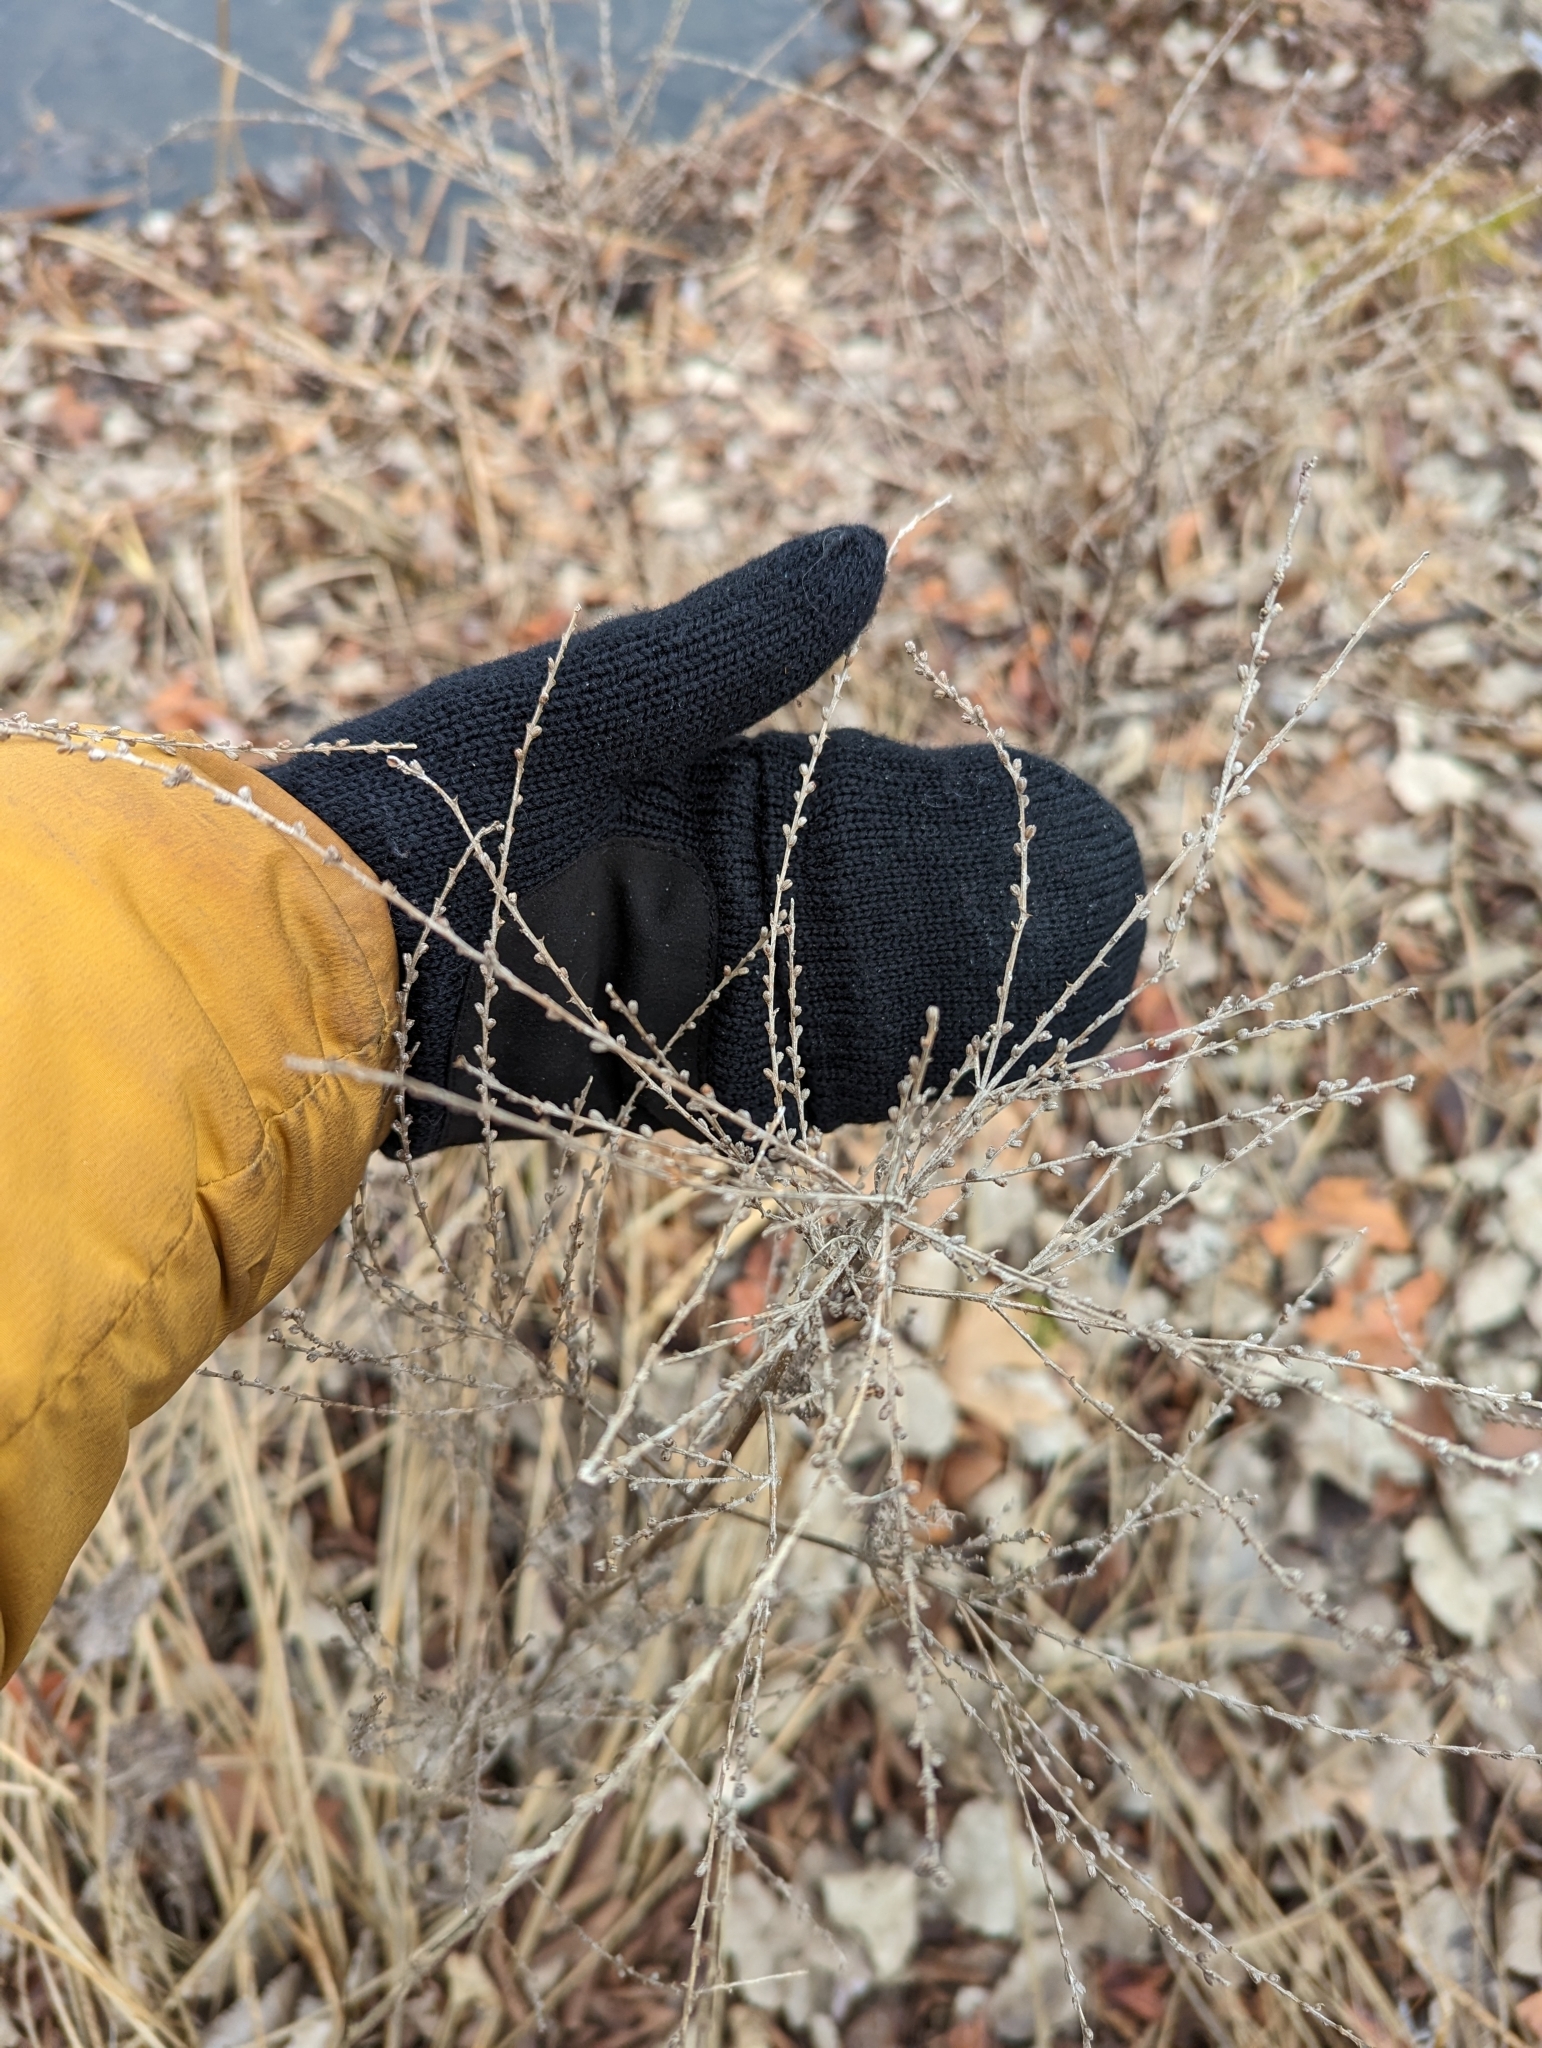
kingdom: Plantae
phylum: Tracheophyta
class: Magnoliopsida
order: Lamiales
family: Verbenaceae
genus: Verbena
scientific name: Verbena urticifolia
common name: Nettle-leaved vervain
